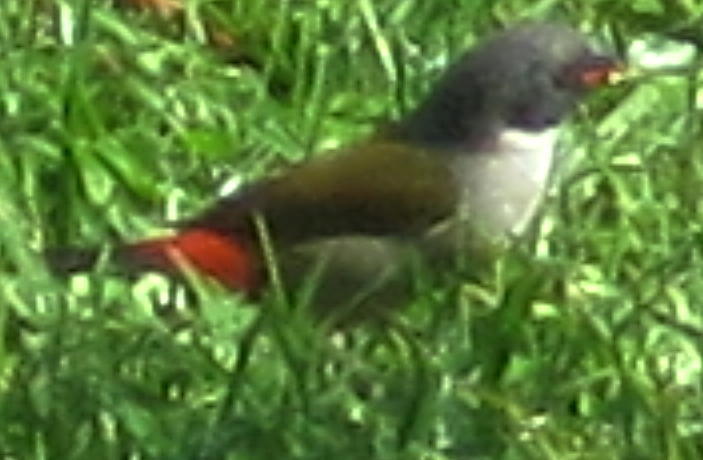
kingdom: Animalia
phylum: Chordata
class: Aves
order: Passeriformes
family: Estrildidae
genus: Coccopygia
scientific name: Coccopygia melanotis
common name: Swee waxbill
